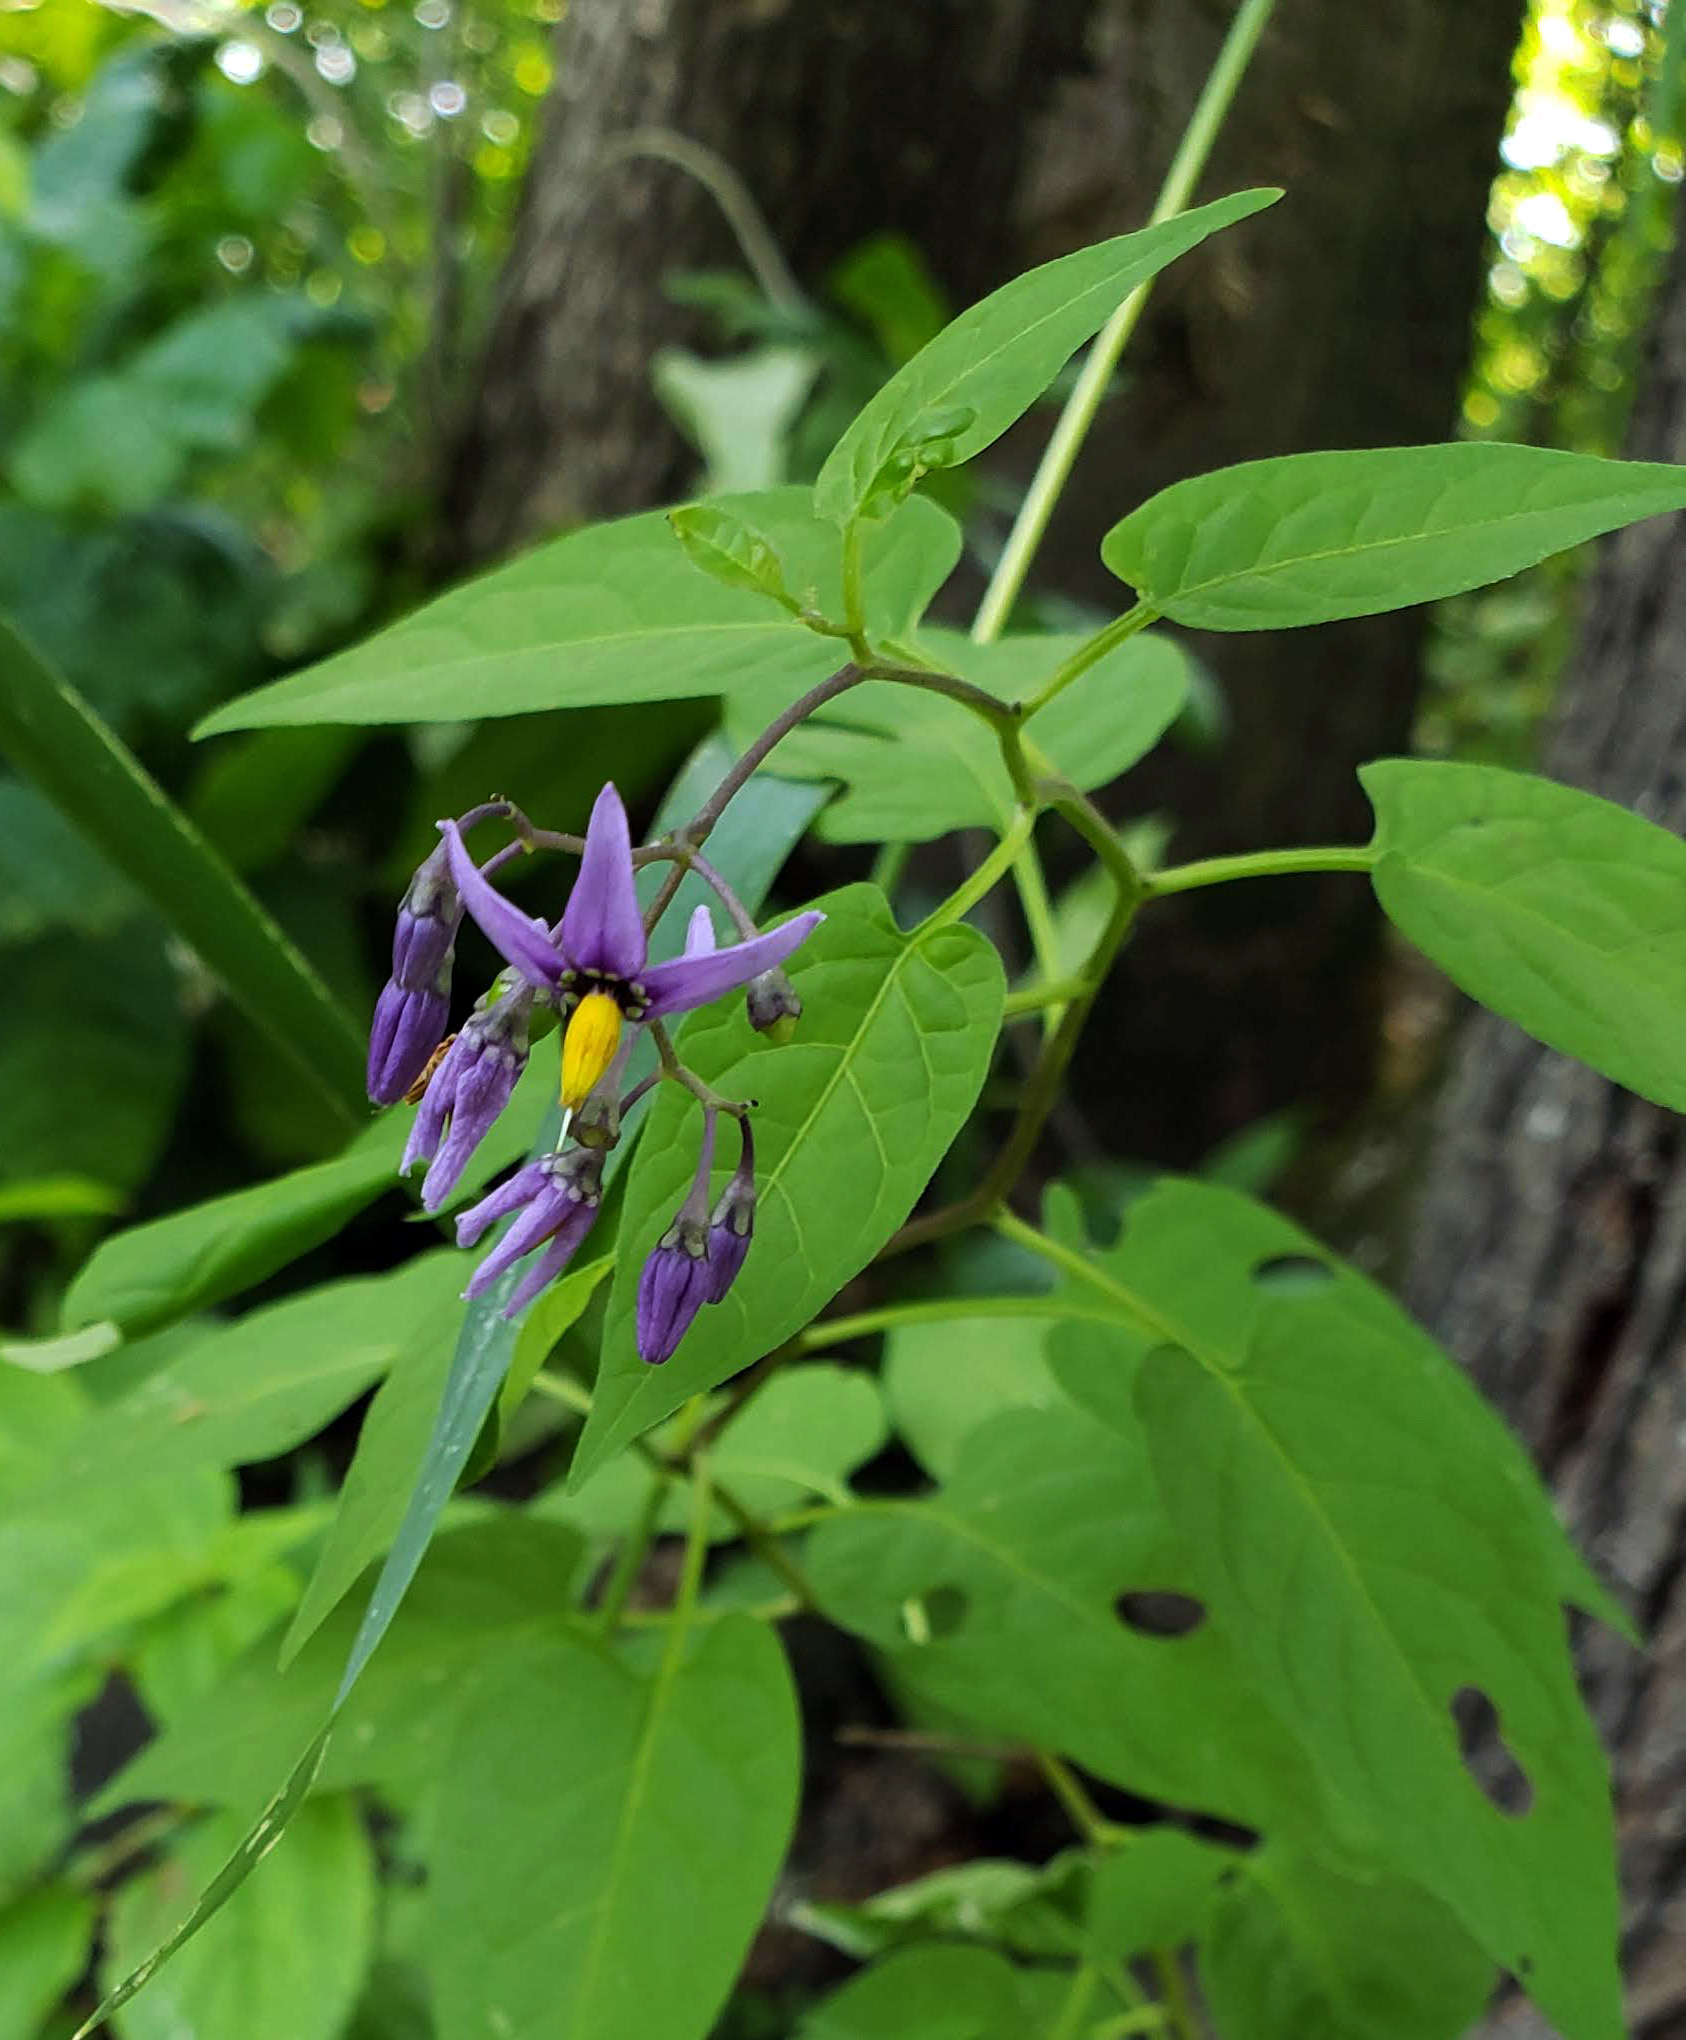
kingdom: Plantae
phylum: Tracheophyta
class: Magnoliopsida
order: Solanales
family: Solanaceae
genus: Solanum
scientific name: Solanum dulcamara
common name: Climbing nightshade
